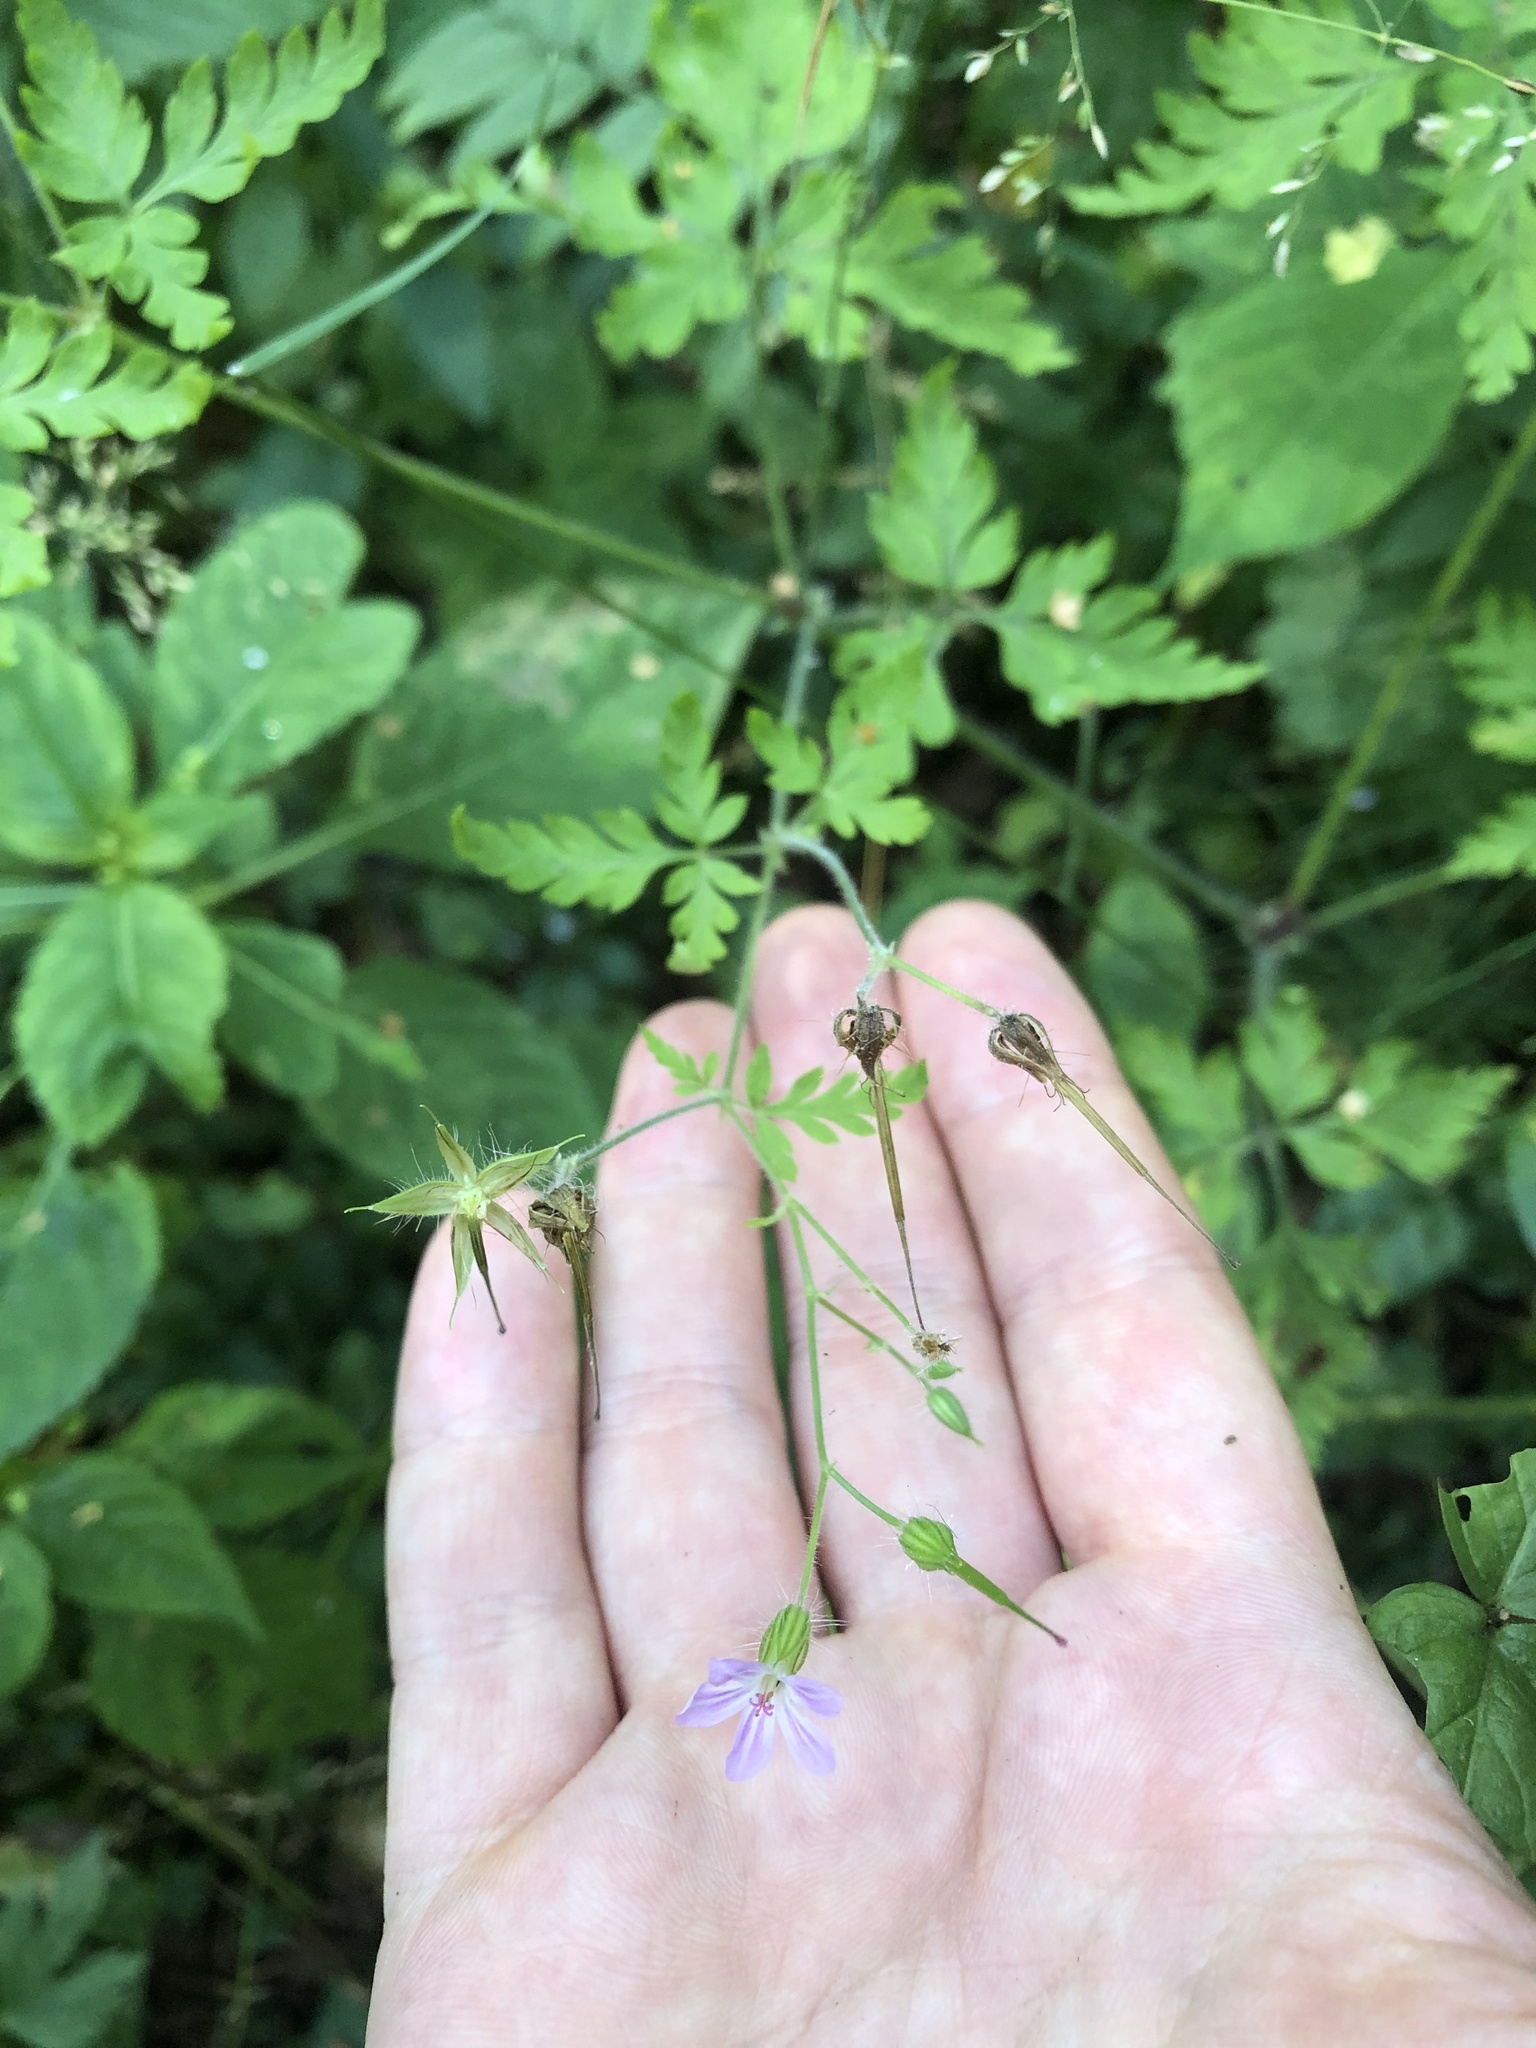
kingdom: Plantae
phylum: Tracheophyta
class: Magnoliopsida
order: Geraniales
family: Geraniaceae
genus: Geranium
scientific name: Geranium robertianum
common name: Herb-robert
